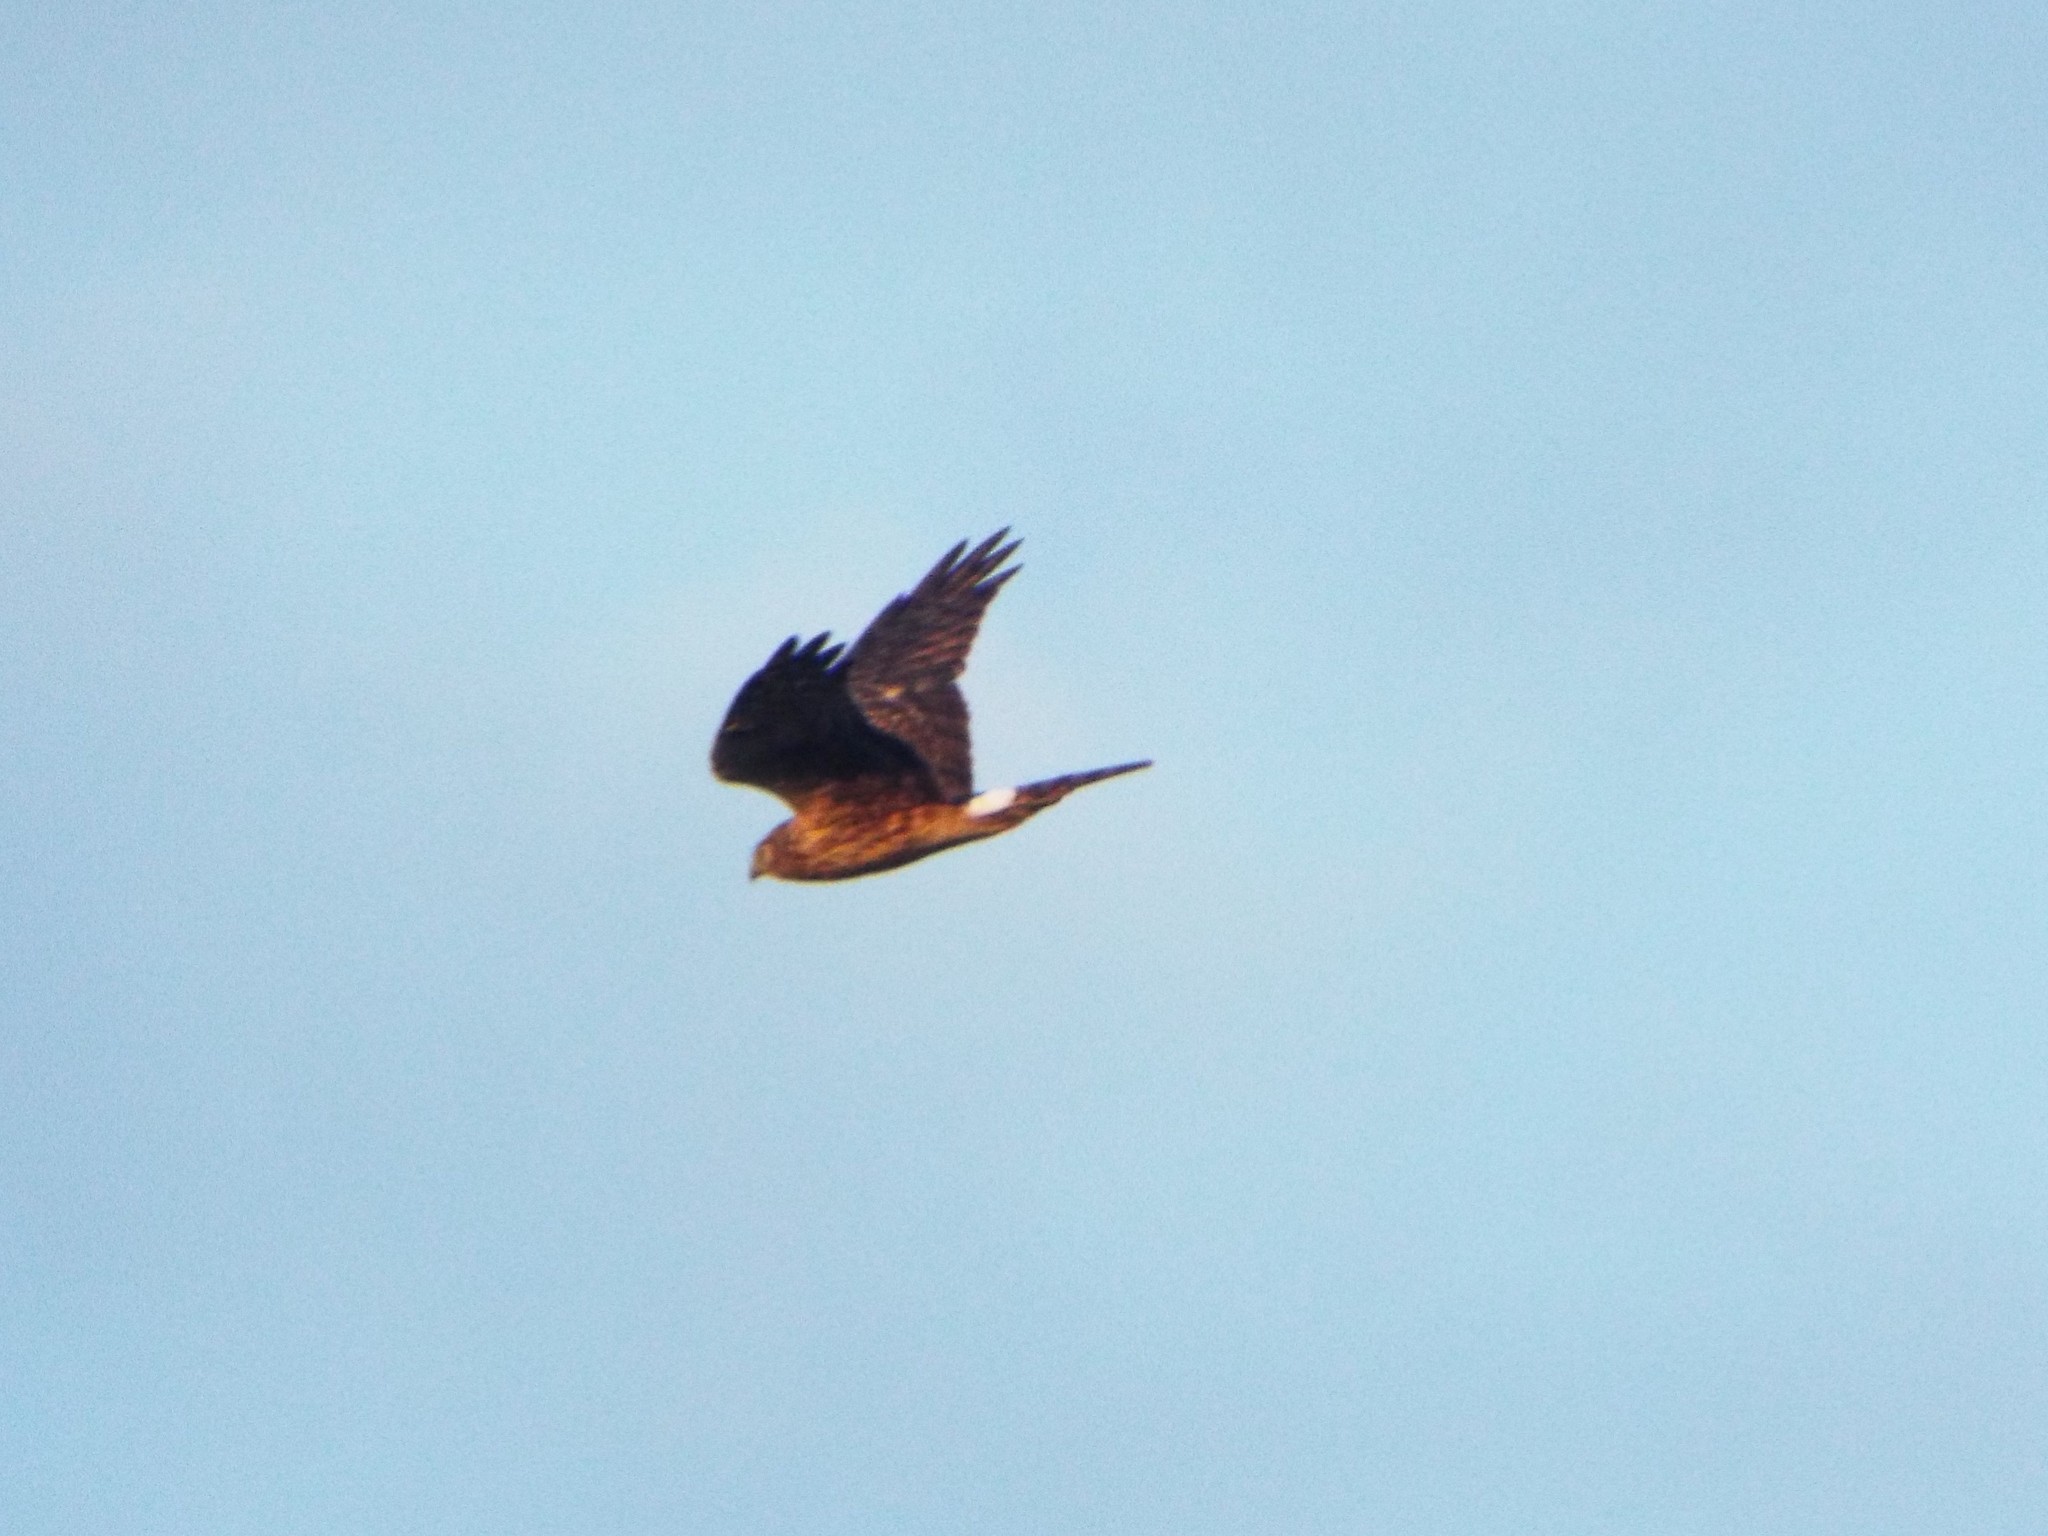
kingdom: Animalia
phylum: Chordata
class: Aves
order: Accipitriformes
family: Accipitridae
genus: Circus
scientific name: Circus cyaneus
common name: Hen harrier
